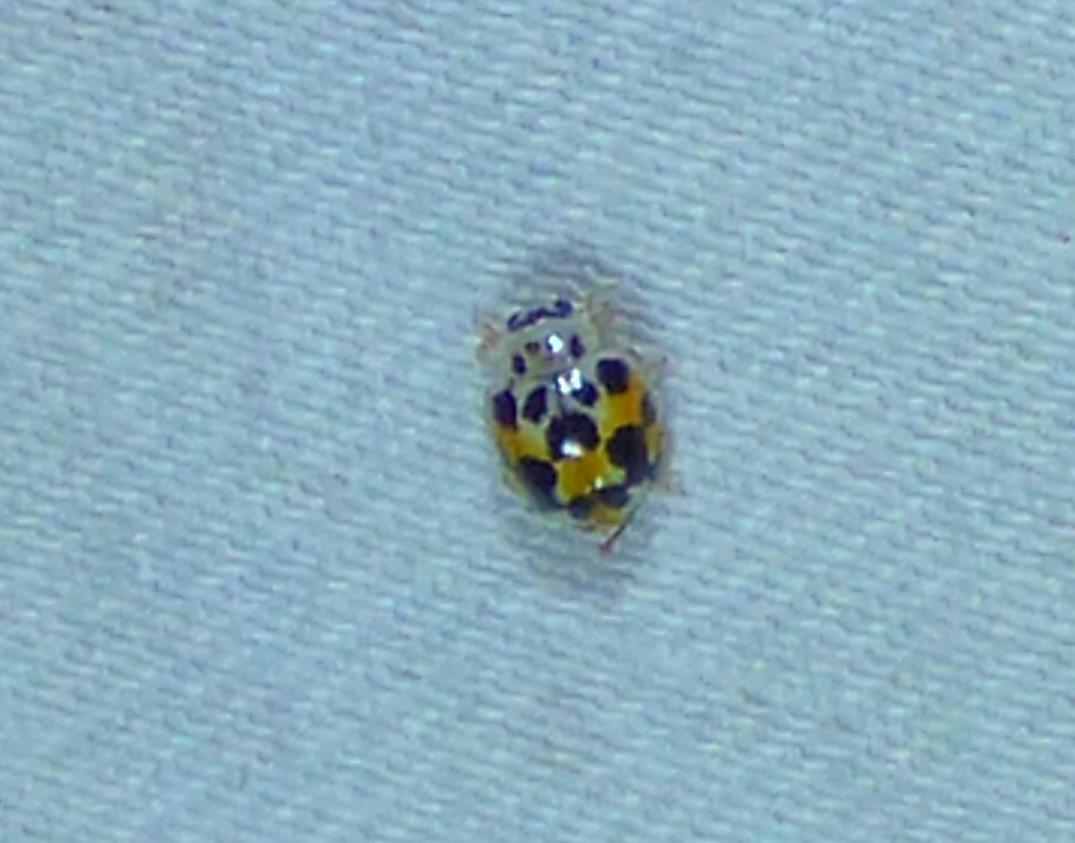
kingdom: Animalia
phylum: Arthropoda
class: Insecta
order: Coleoptera
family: Coccinellidae
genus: Psyllobora
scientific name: Psyllobora vigintimaculata
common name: Ladybird beetle
